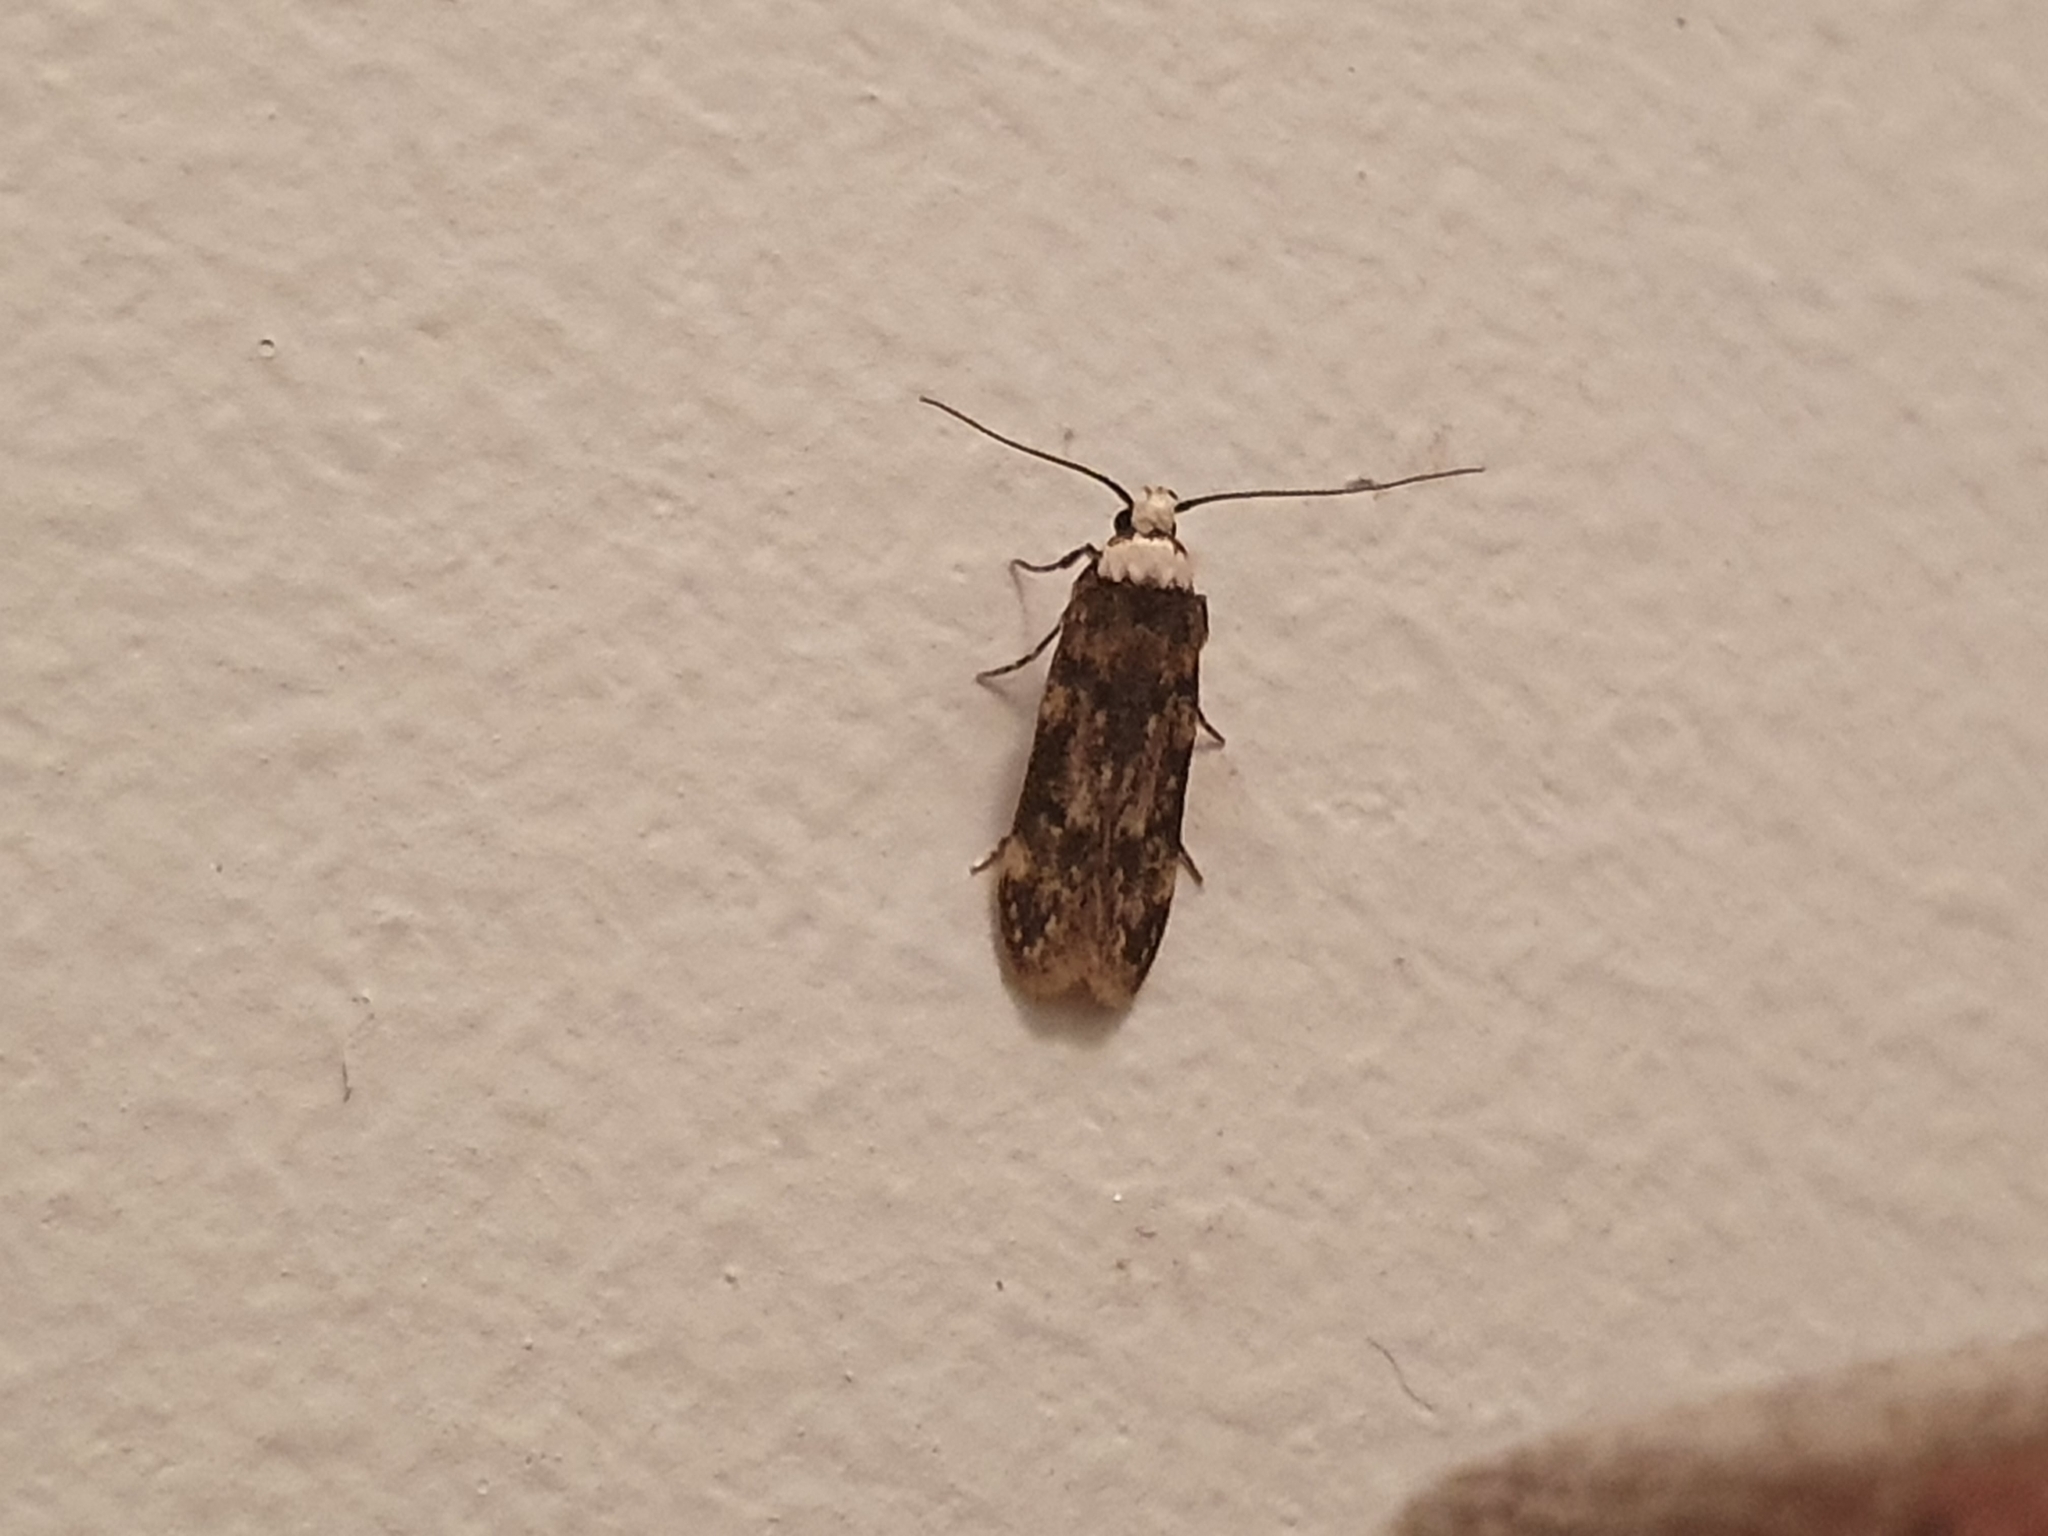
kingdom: Animalia
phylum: Arthropoda
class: Insecta
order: Lepidoptera
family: Oecophoridae
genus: Endrosis
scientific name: Endrosis sarcitrella
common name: White-shouldered house moth
